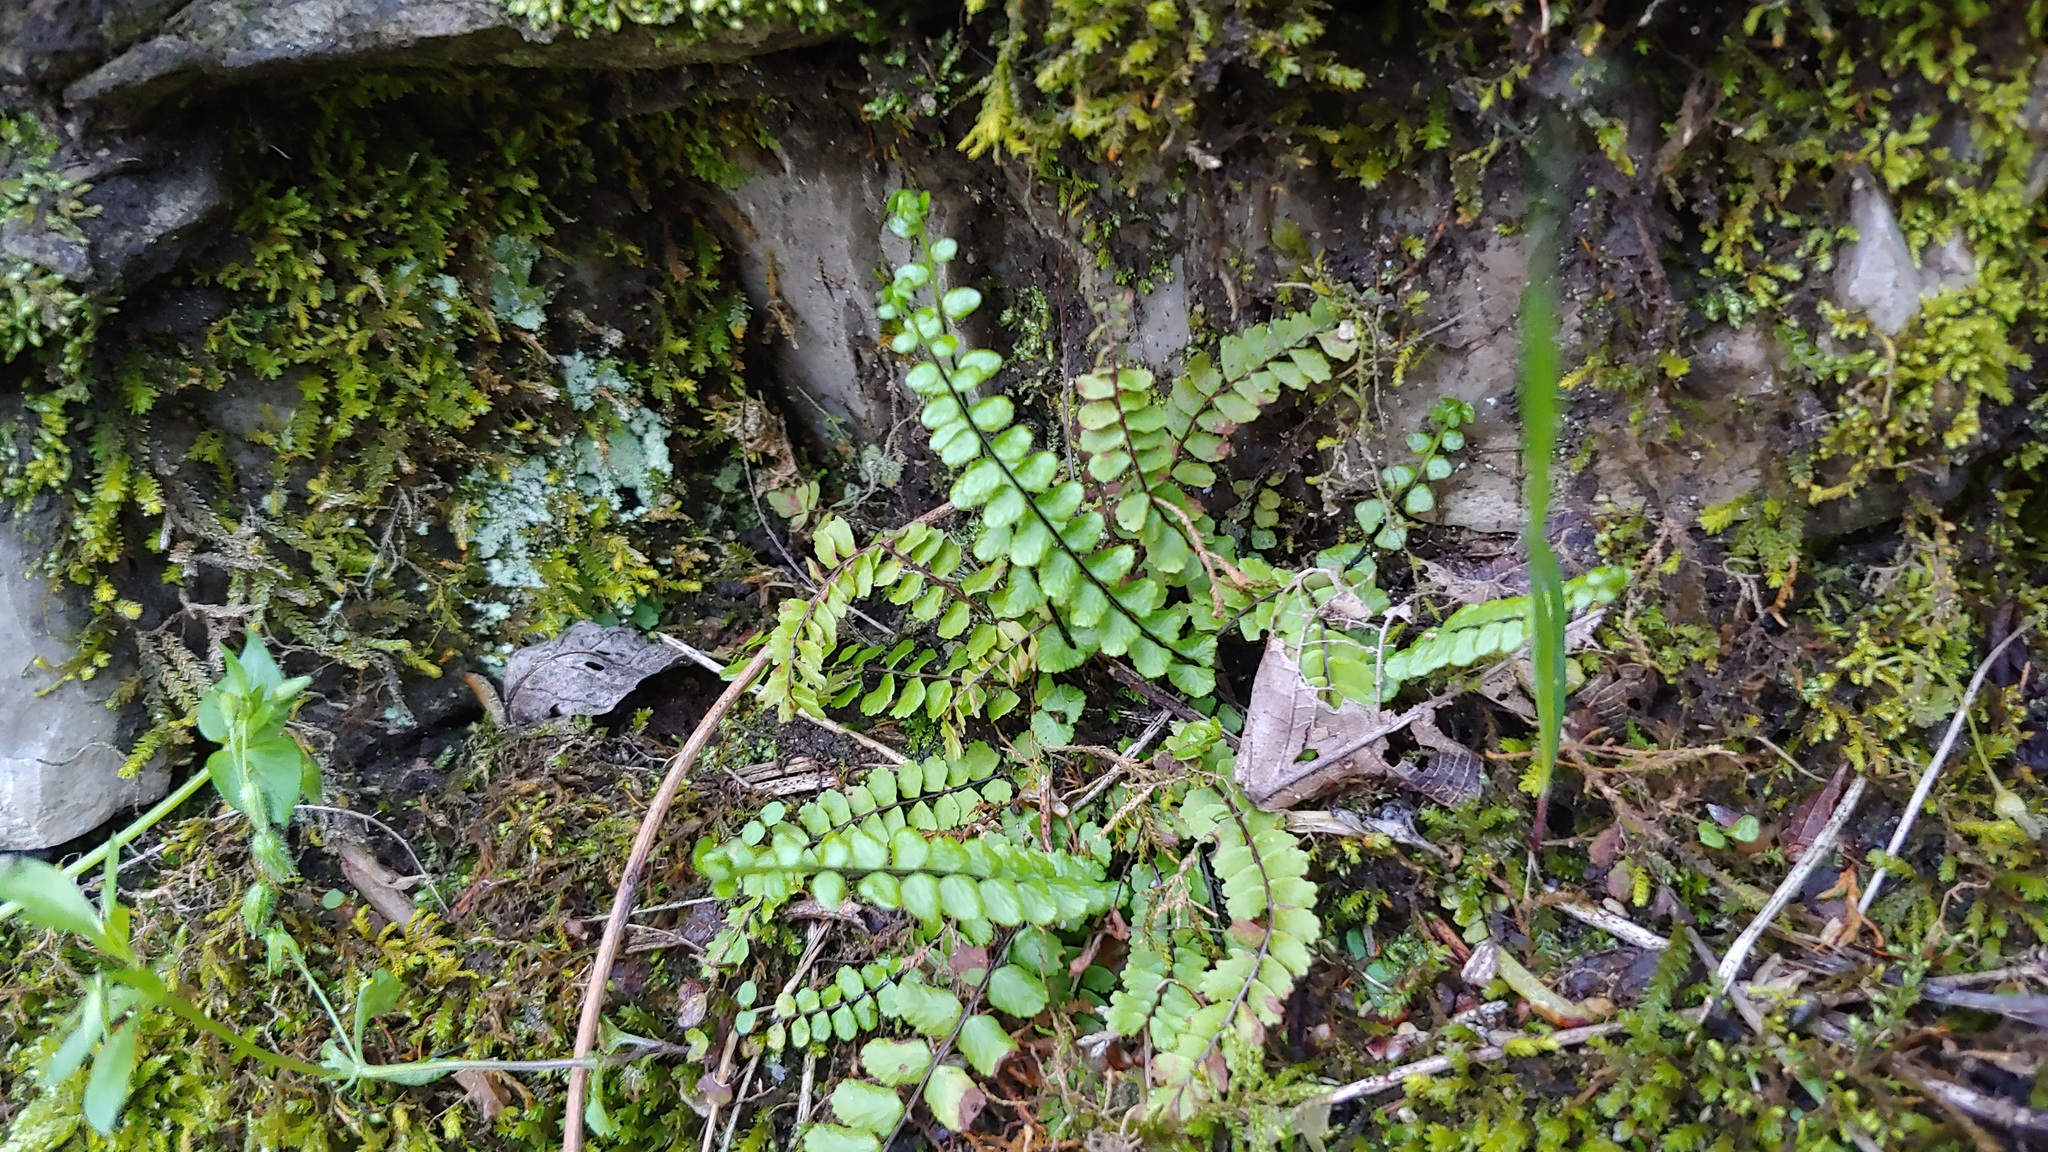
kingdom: Plantae
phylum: Tracheophyta
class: Polypodiopsida
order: Polypodiales
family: Aspleniaceae
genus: Asplenium
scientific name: Asplenium trichomanes
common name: Maidenhair spleenwort
